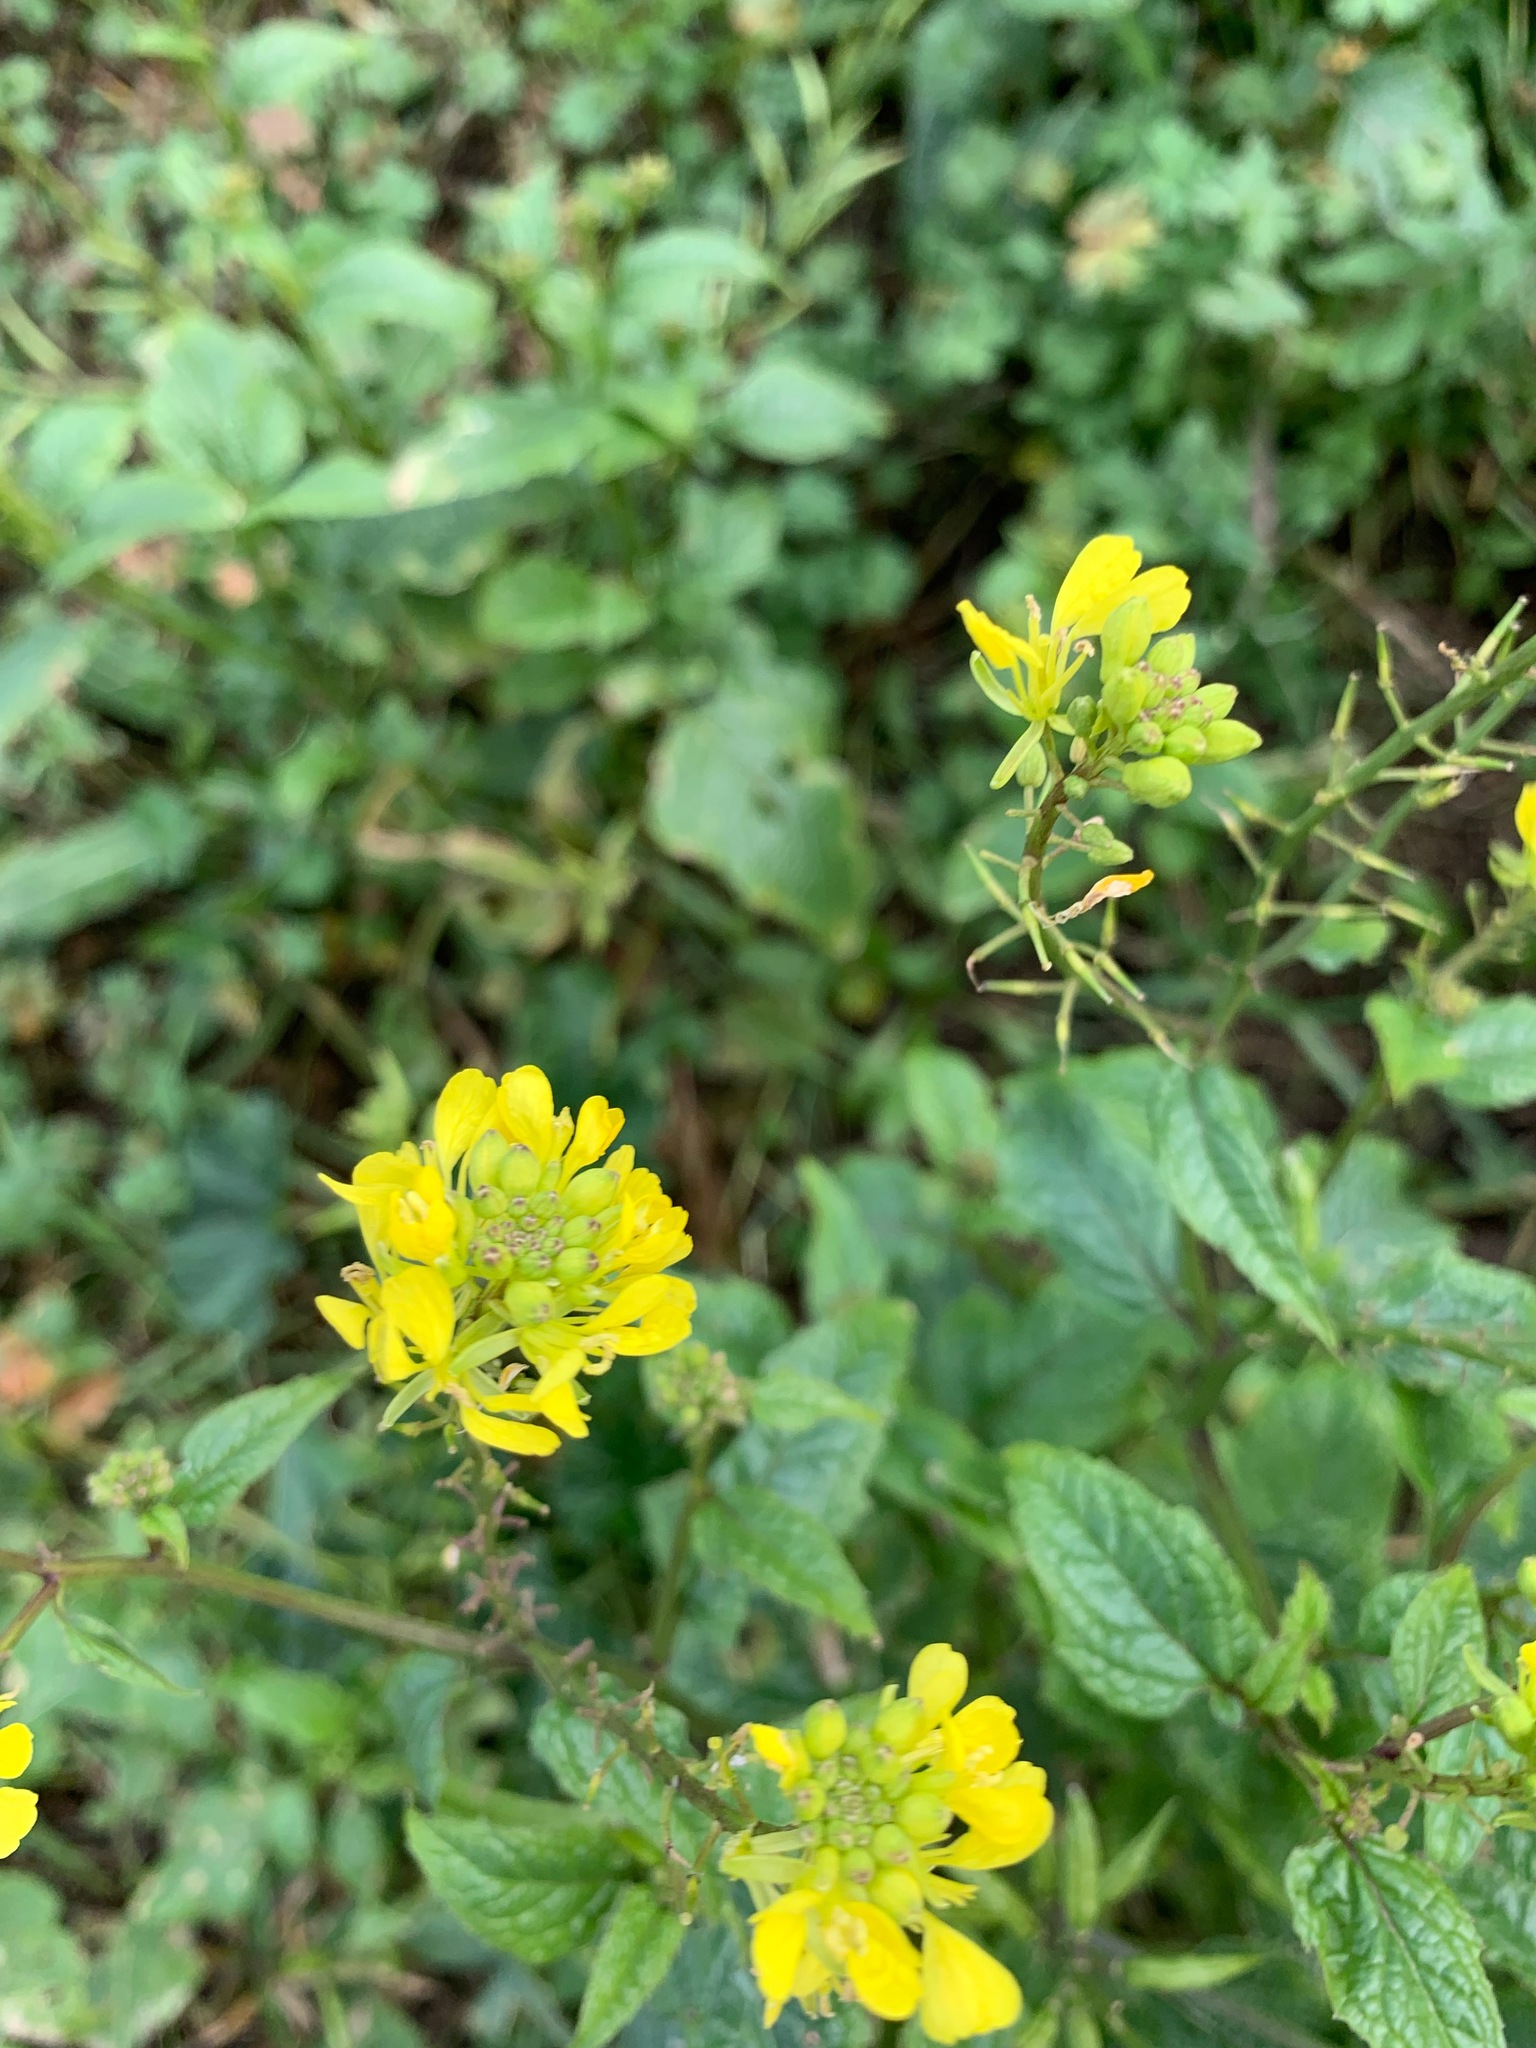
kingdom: Plantae
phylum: Tracheophyta
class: Magnoliopsida
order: Brassicales
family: Brassicaceae
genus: Sinapis
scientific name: Sinapis arvensis
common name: Charlock
